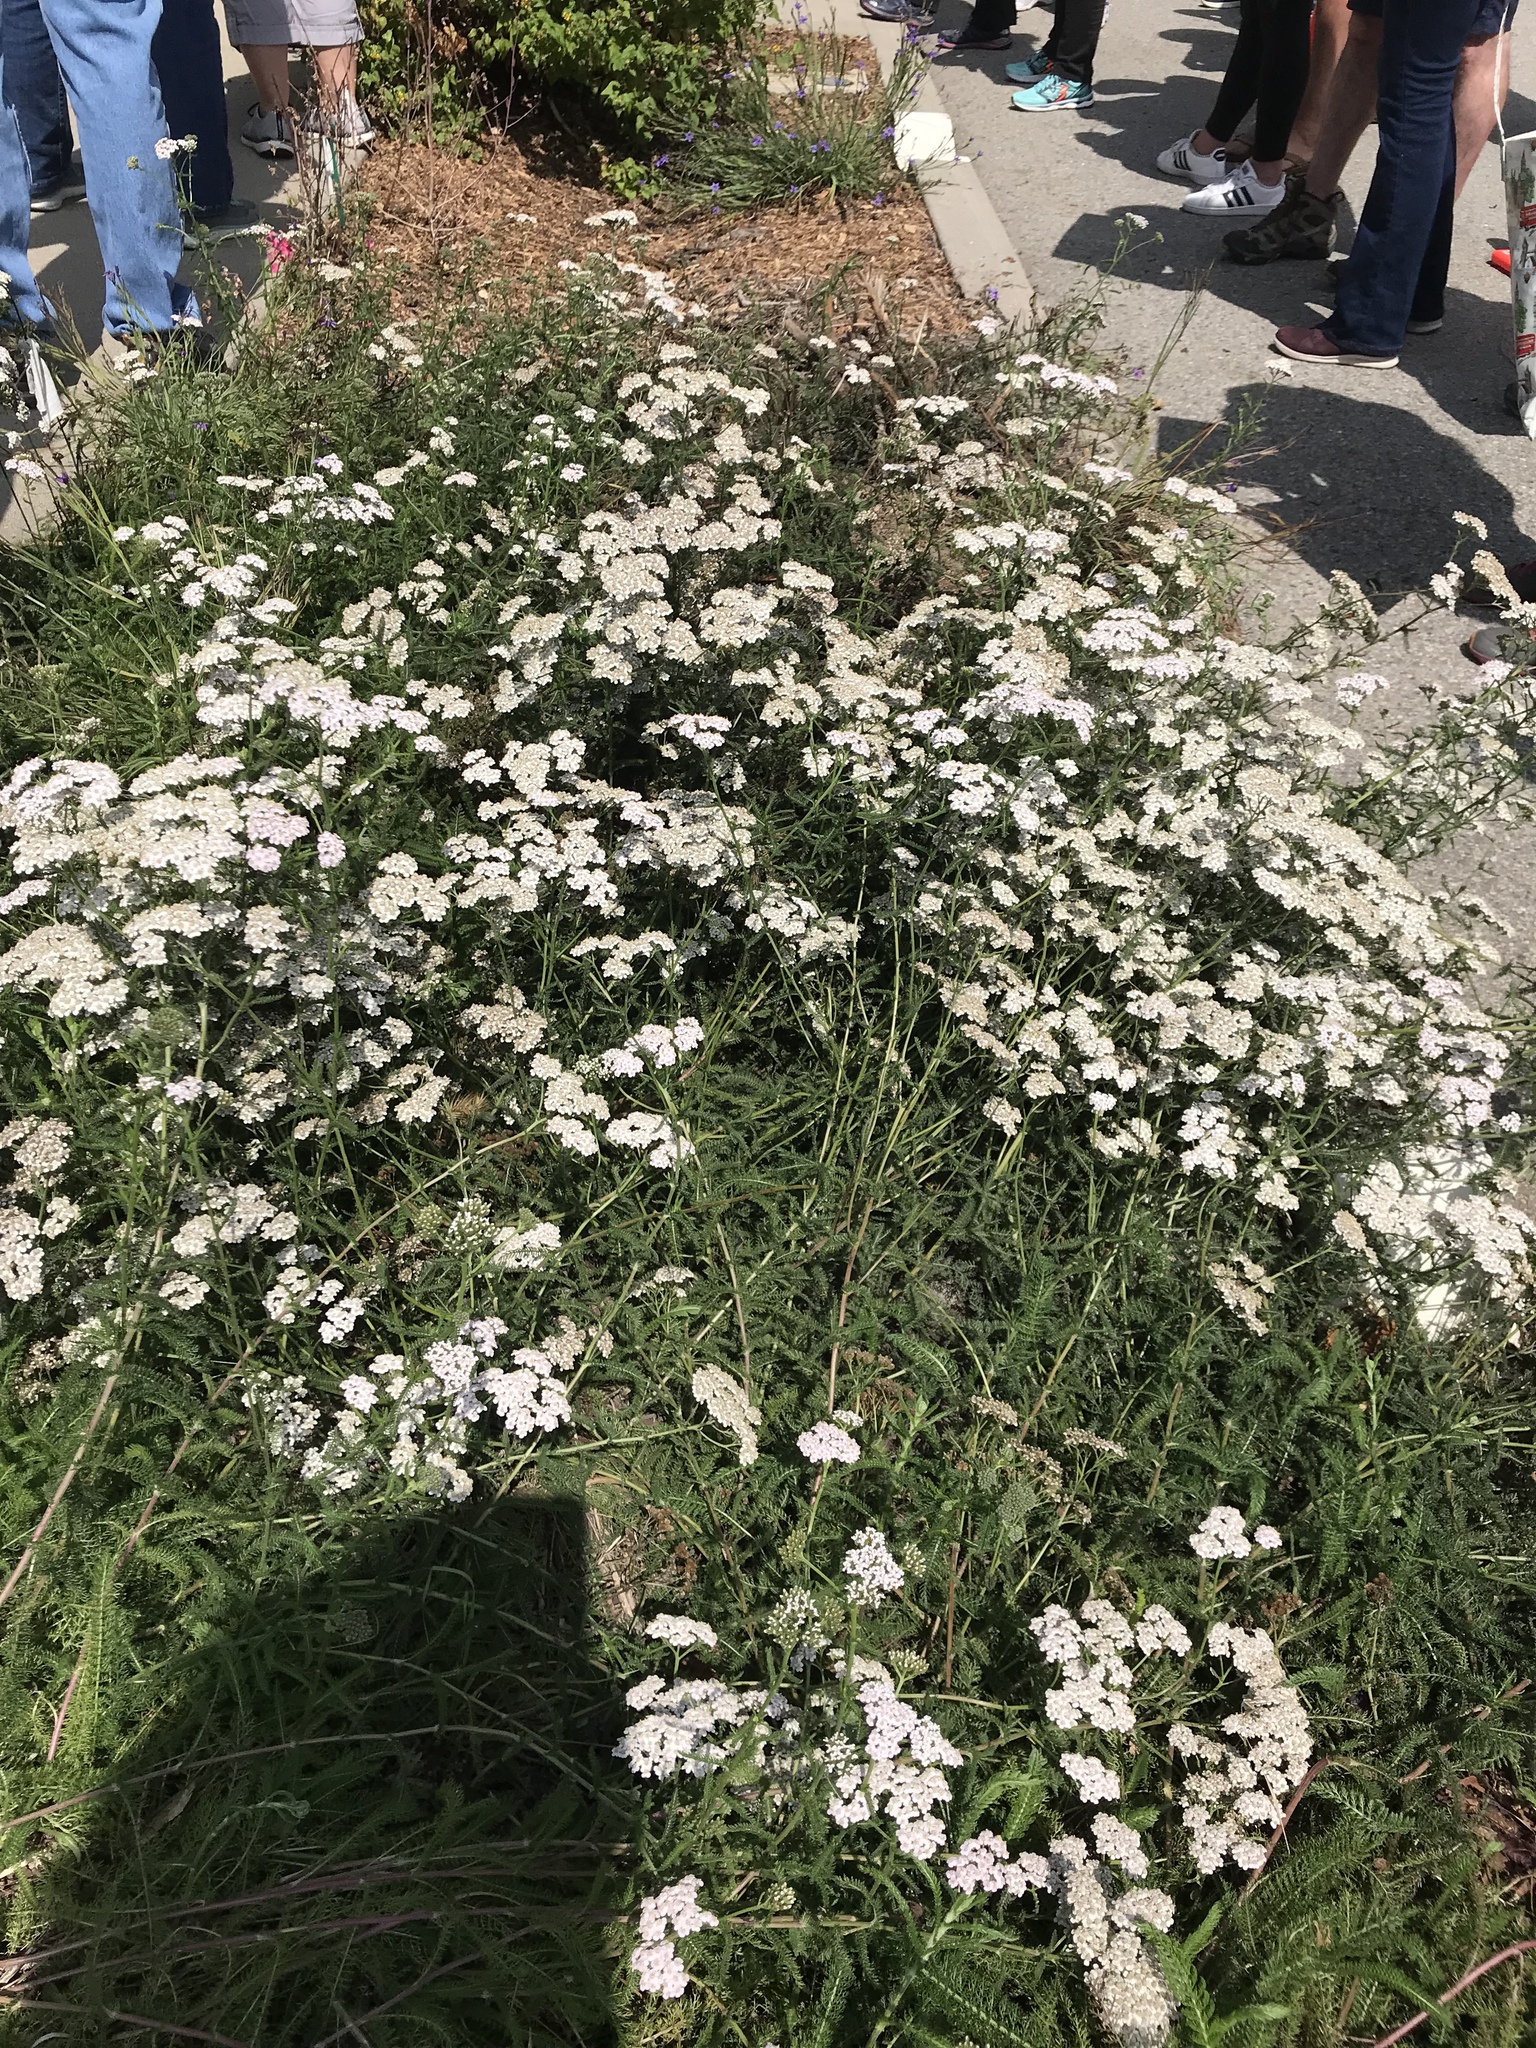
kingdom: Plantae
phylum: Tracheophyta
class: Magnoliopsida
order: Asterales
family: Asteraceae
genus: Achillea
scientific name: Achillea millefolium
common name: Yarrow
